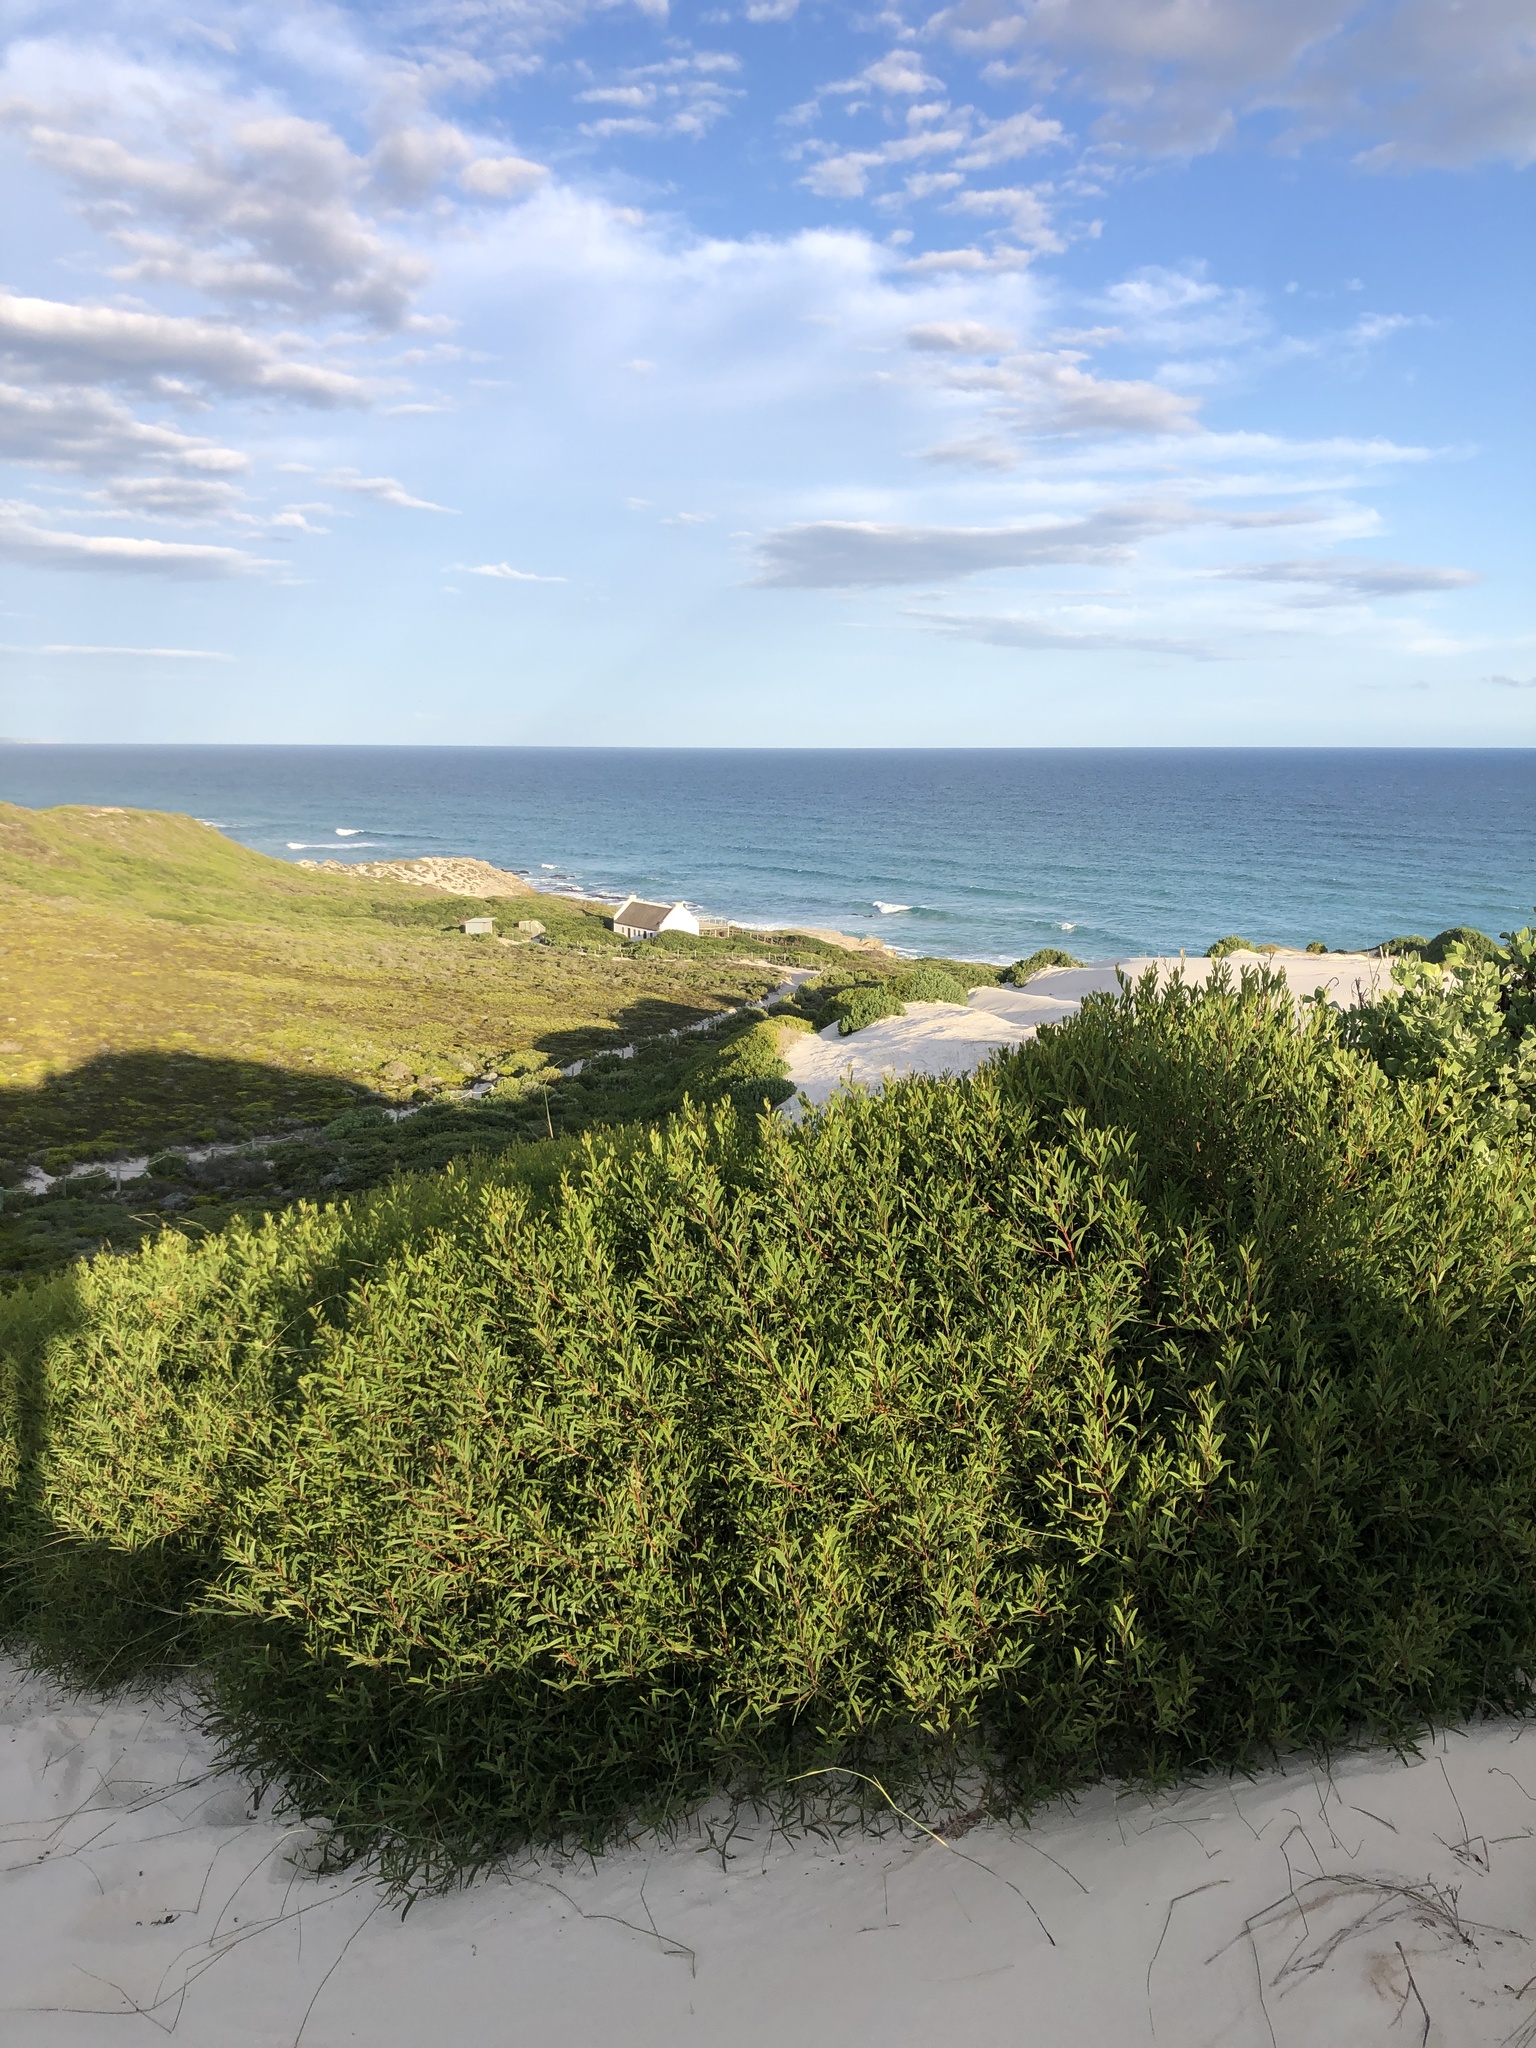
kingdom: Plantae
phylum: Tracheophyta
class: Magnoliopsida
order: Fabales
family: Fabaceae
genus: Acacia
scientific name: Acacia cyclops
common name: Coastal wattle
